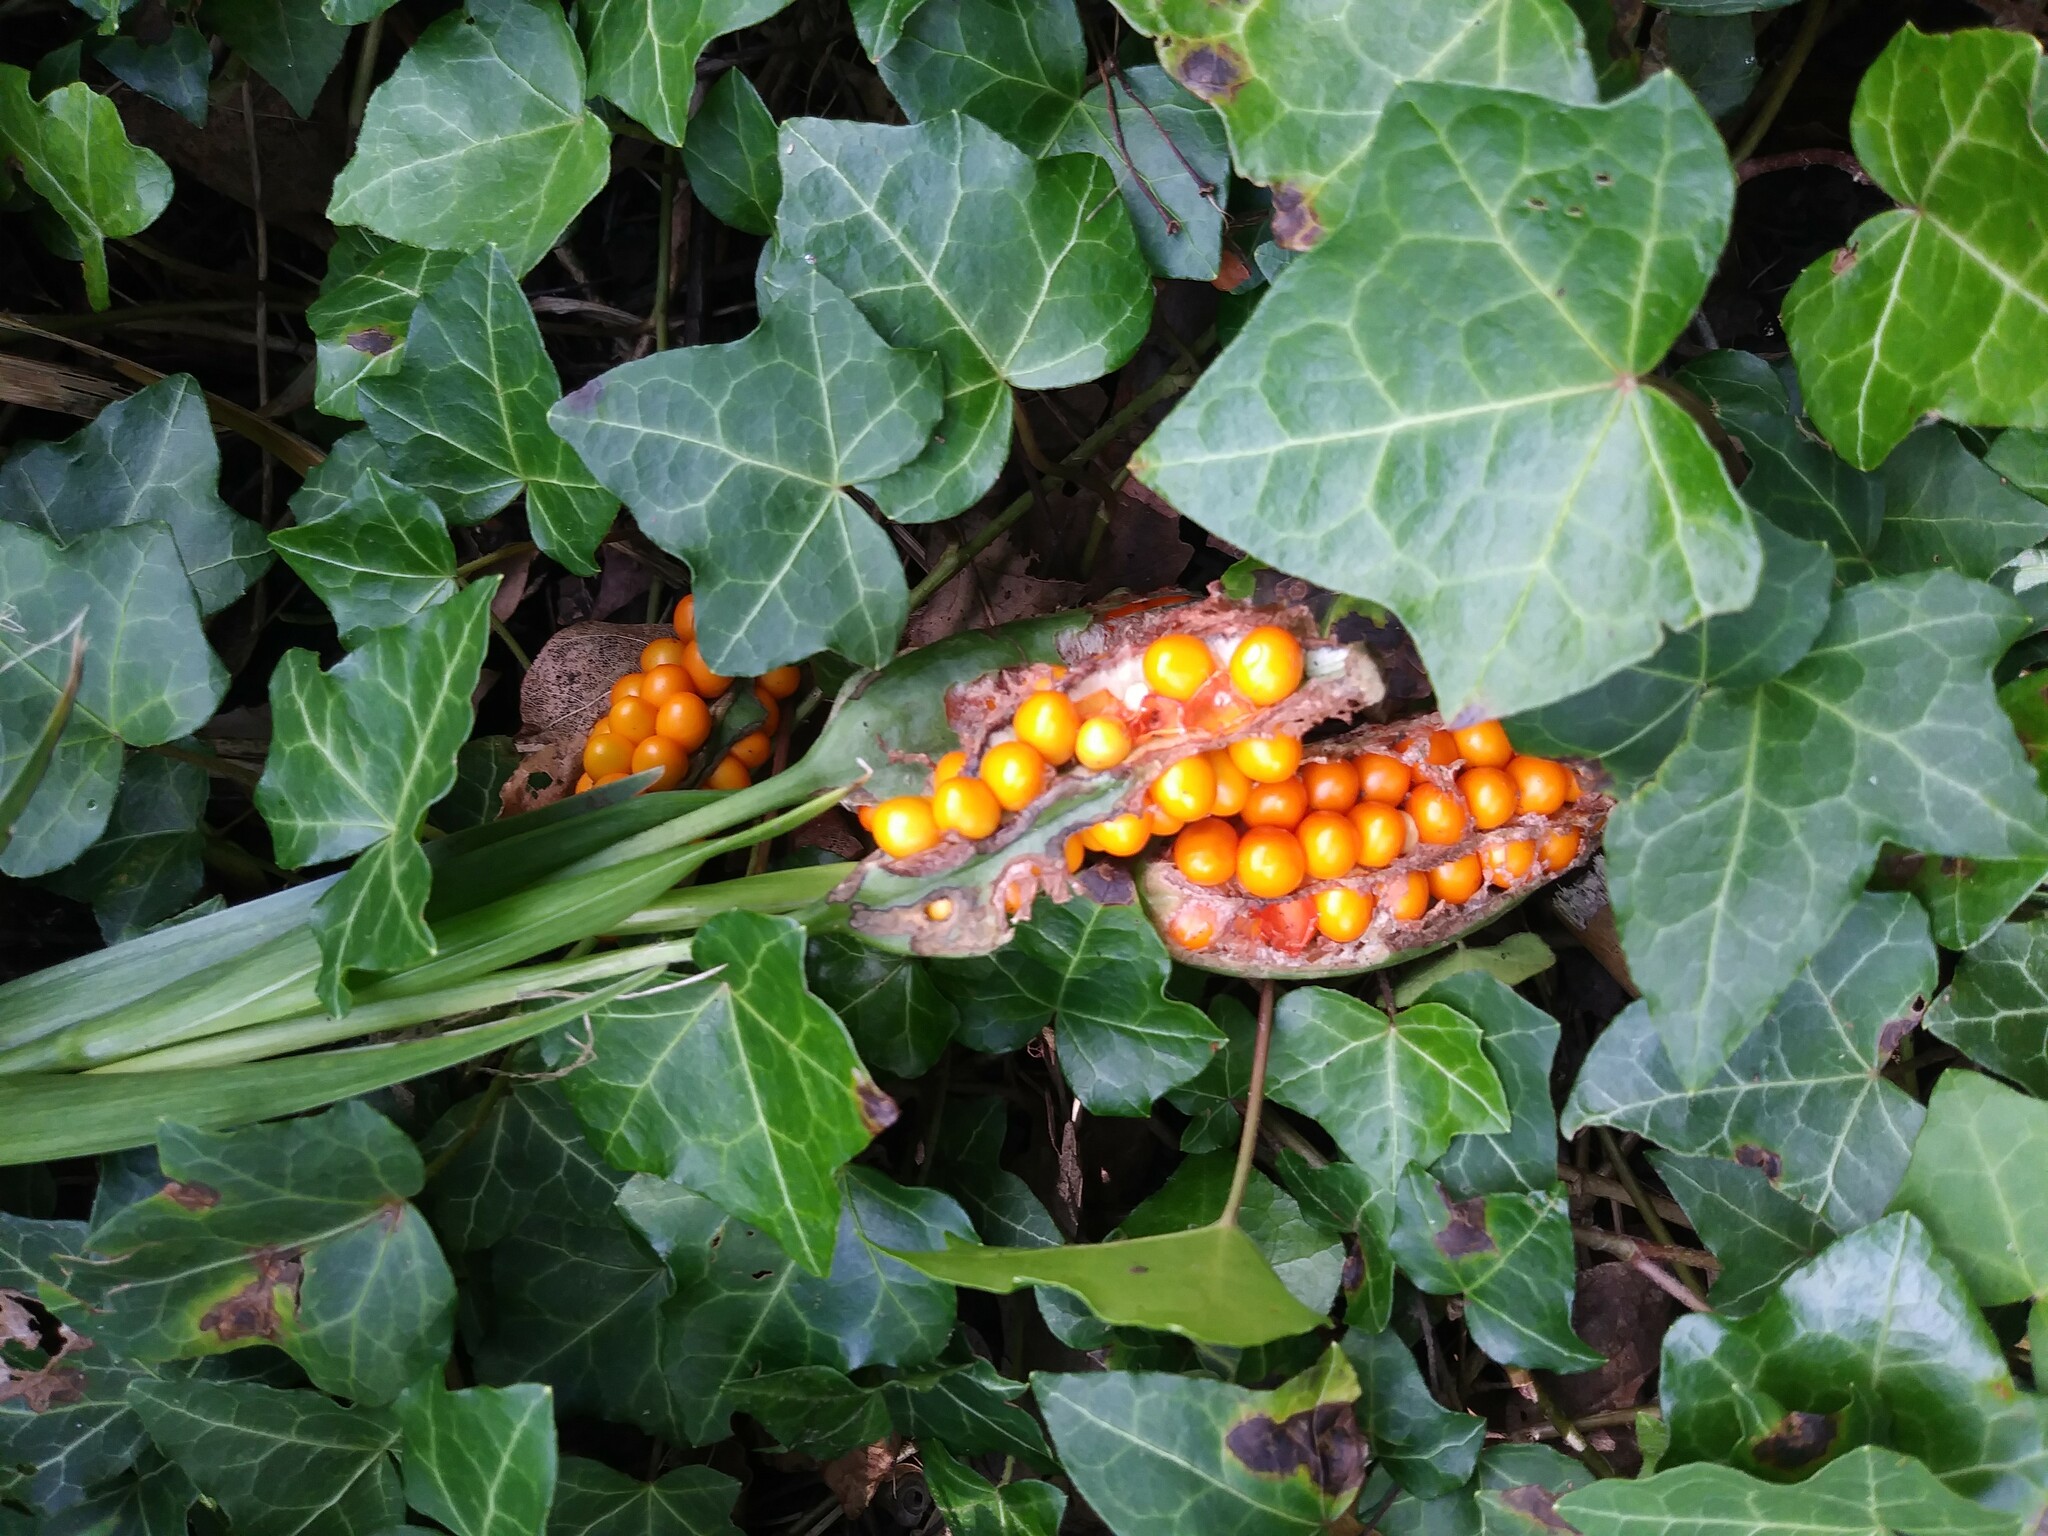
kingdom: Plantae
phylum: Tracheophyta
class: Liliopsida
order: Asparagales
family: Iridaceae
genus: Iris
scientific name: Iris foetidissima
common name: Stinking iris
